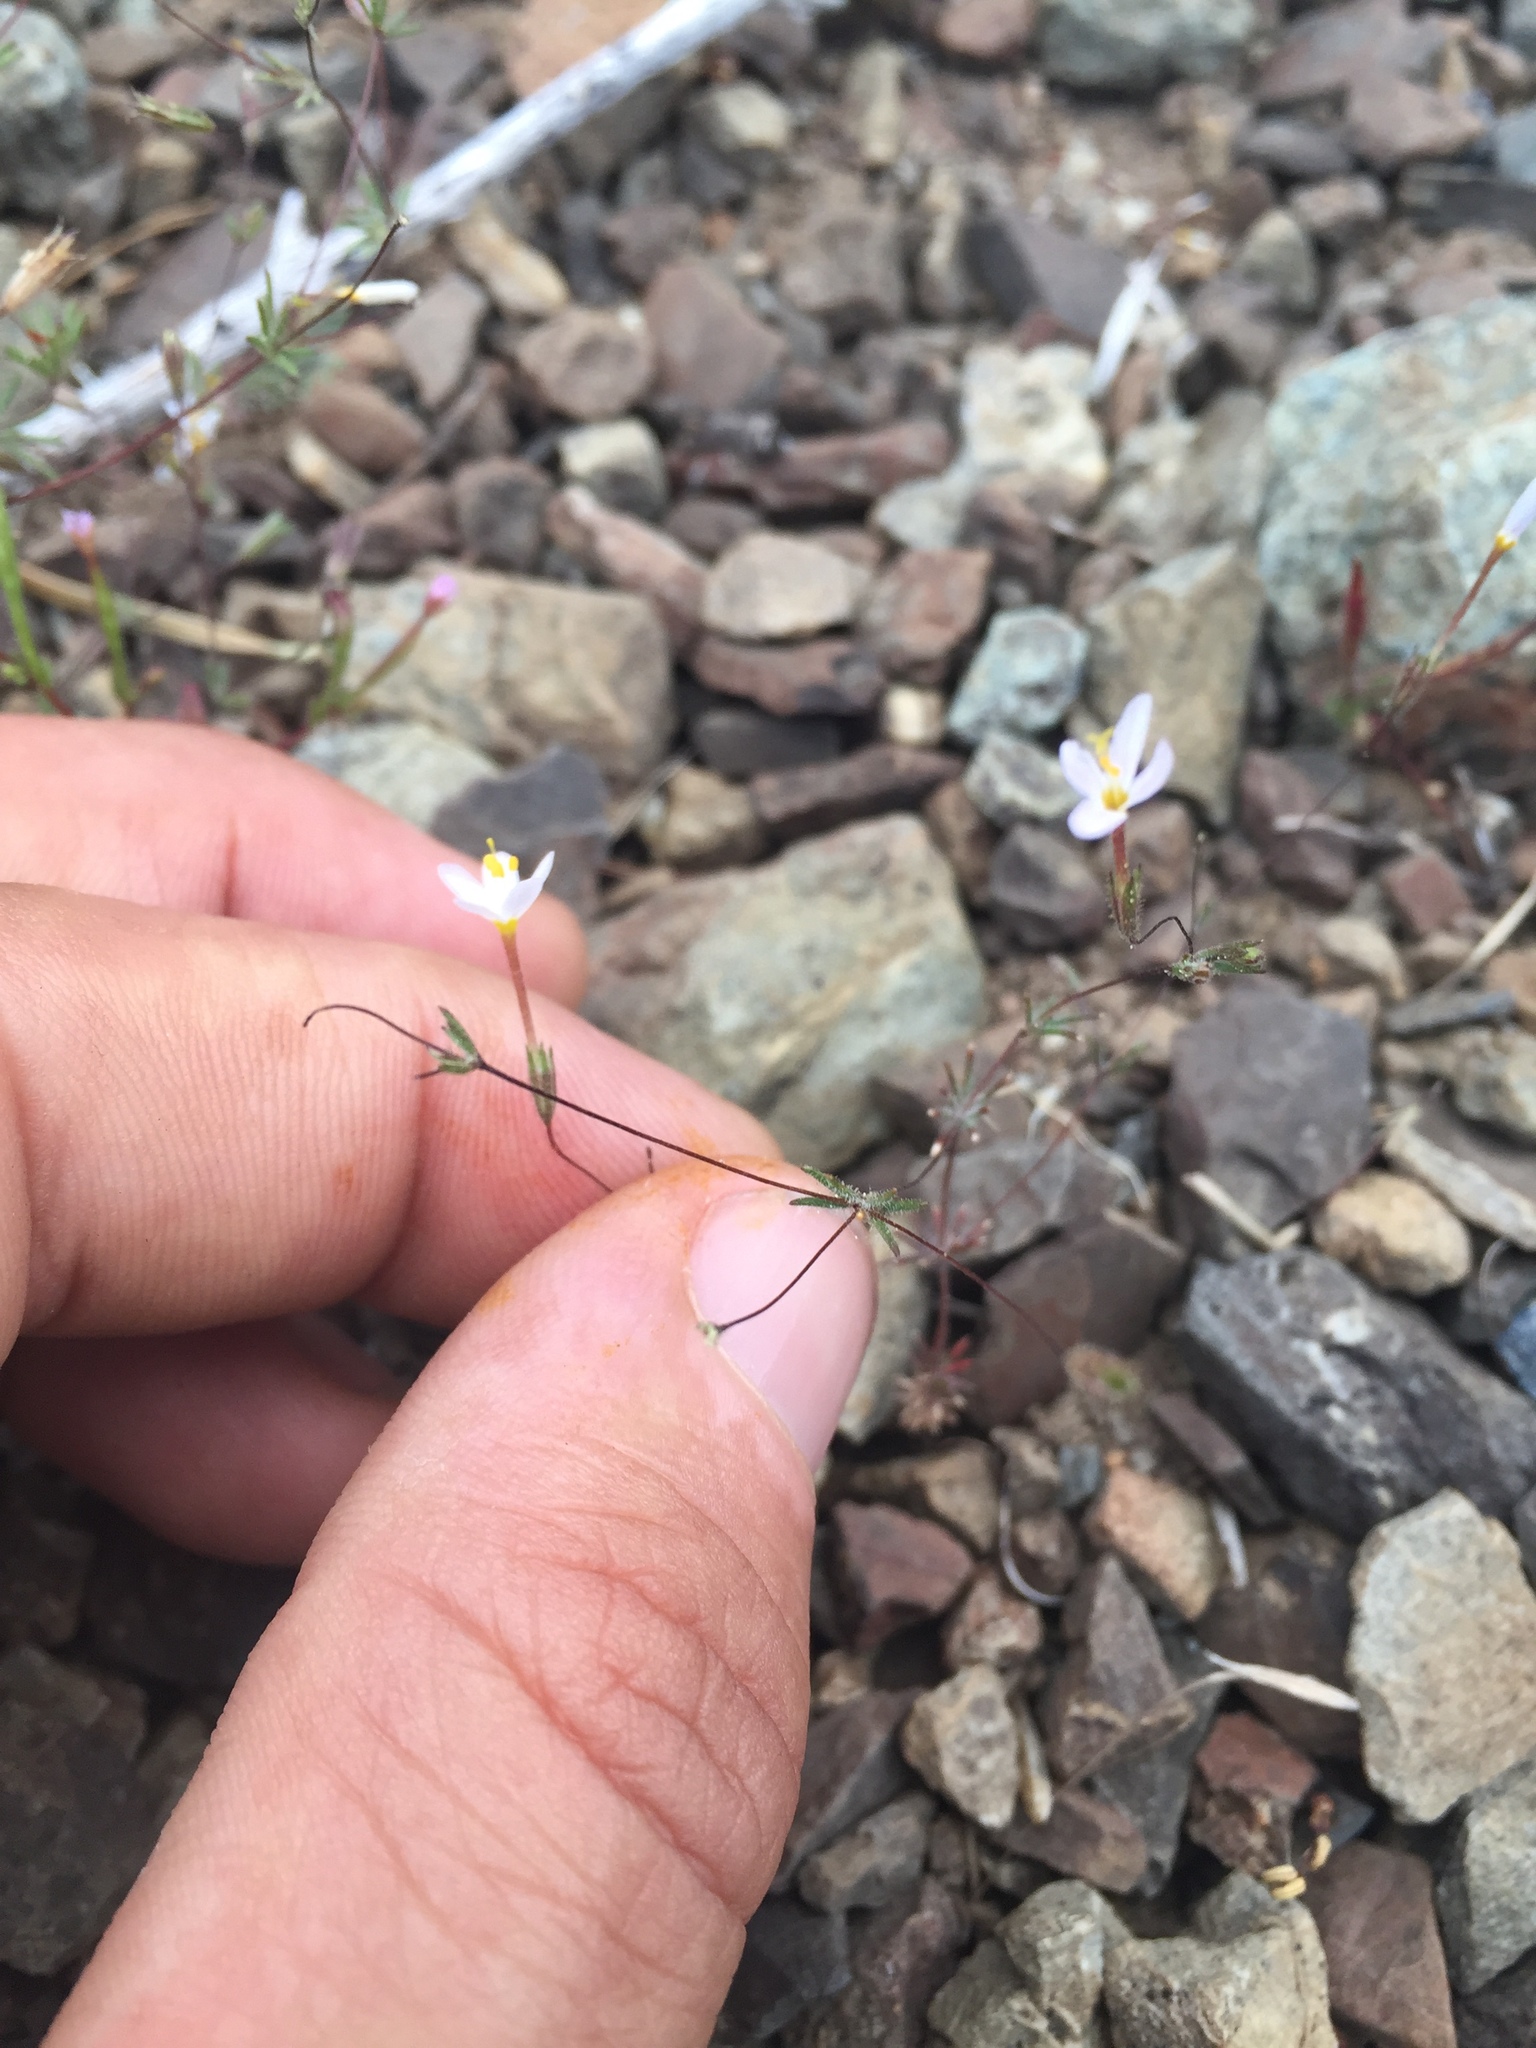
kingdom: Plantae
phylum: Tracheophyta
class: Magnoliopsida
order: Ericales
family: Polemoniaceae
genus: Leptosiphon
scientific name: Leptosiphon bolanderi
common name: Bolander's linanthus
